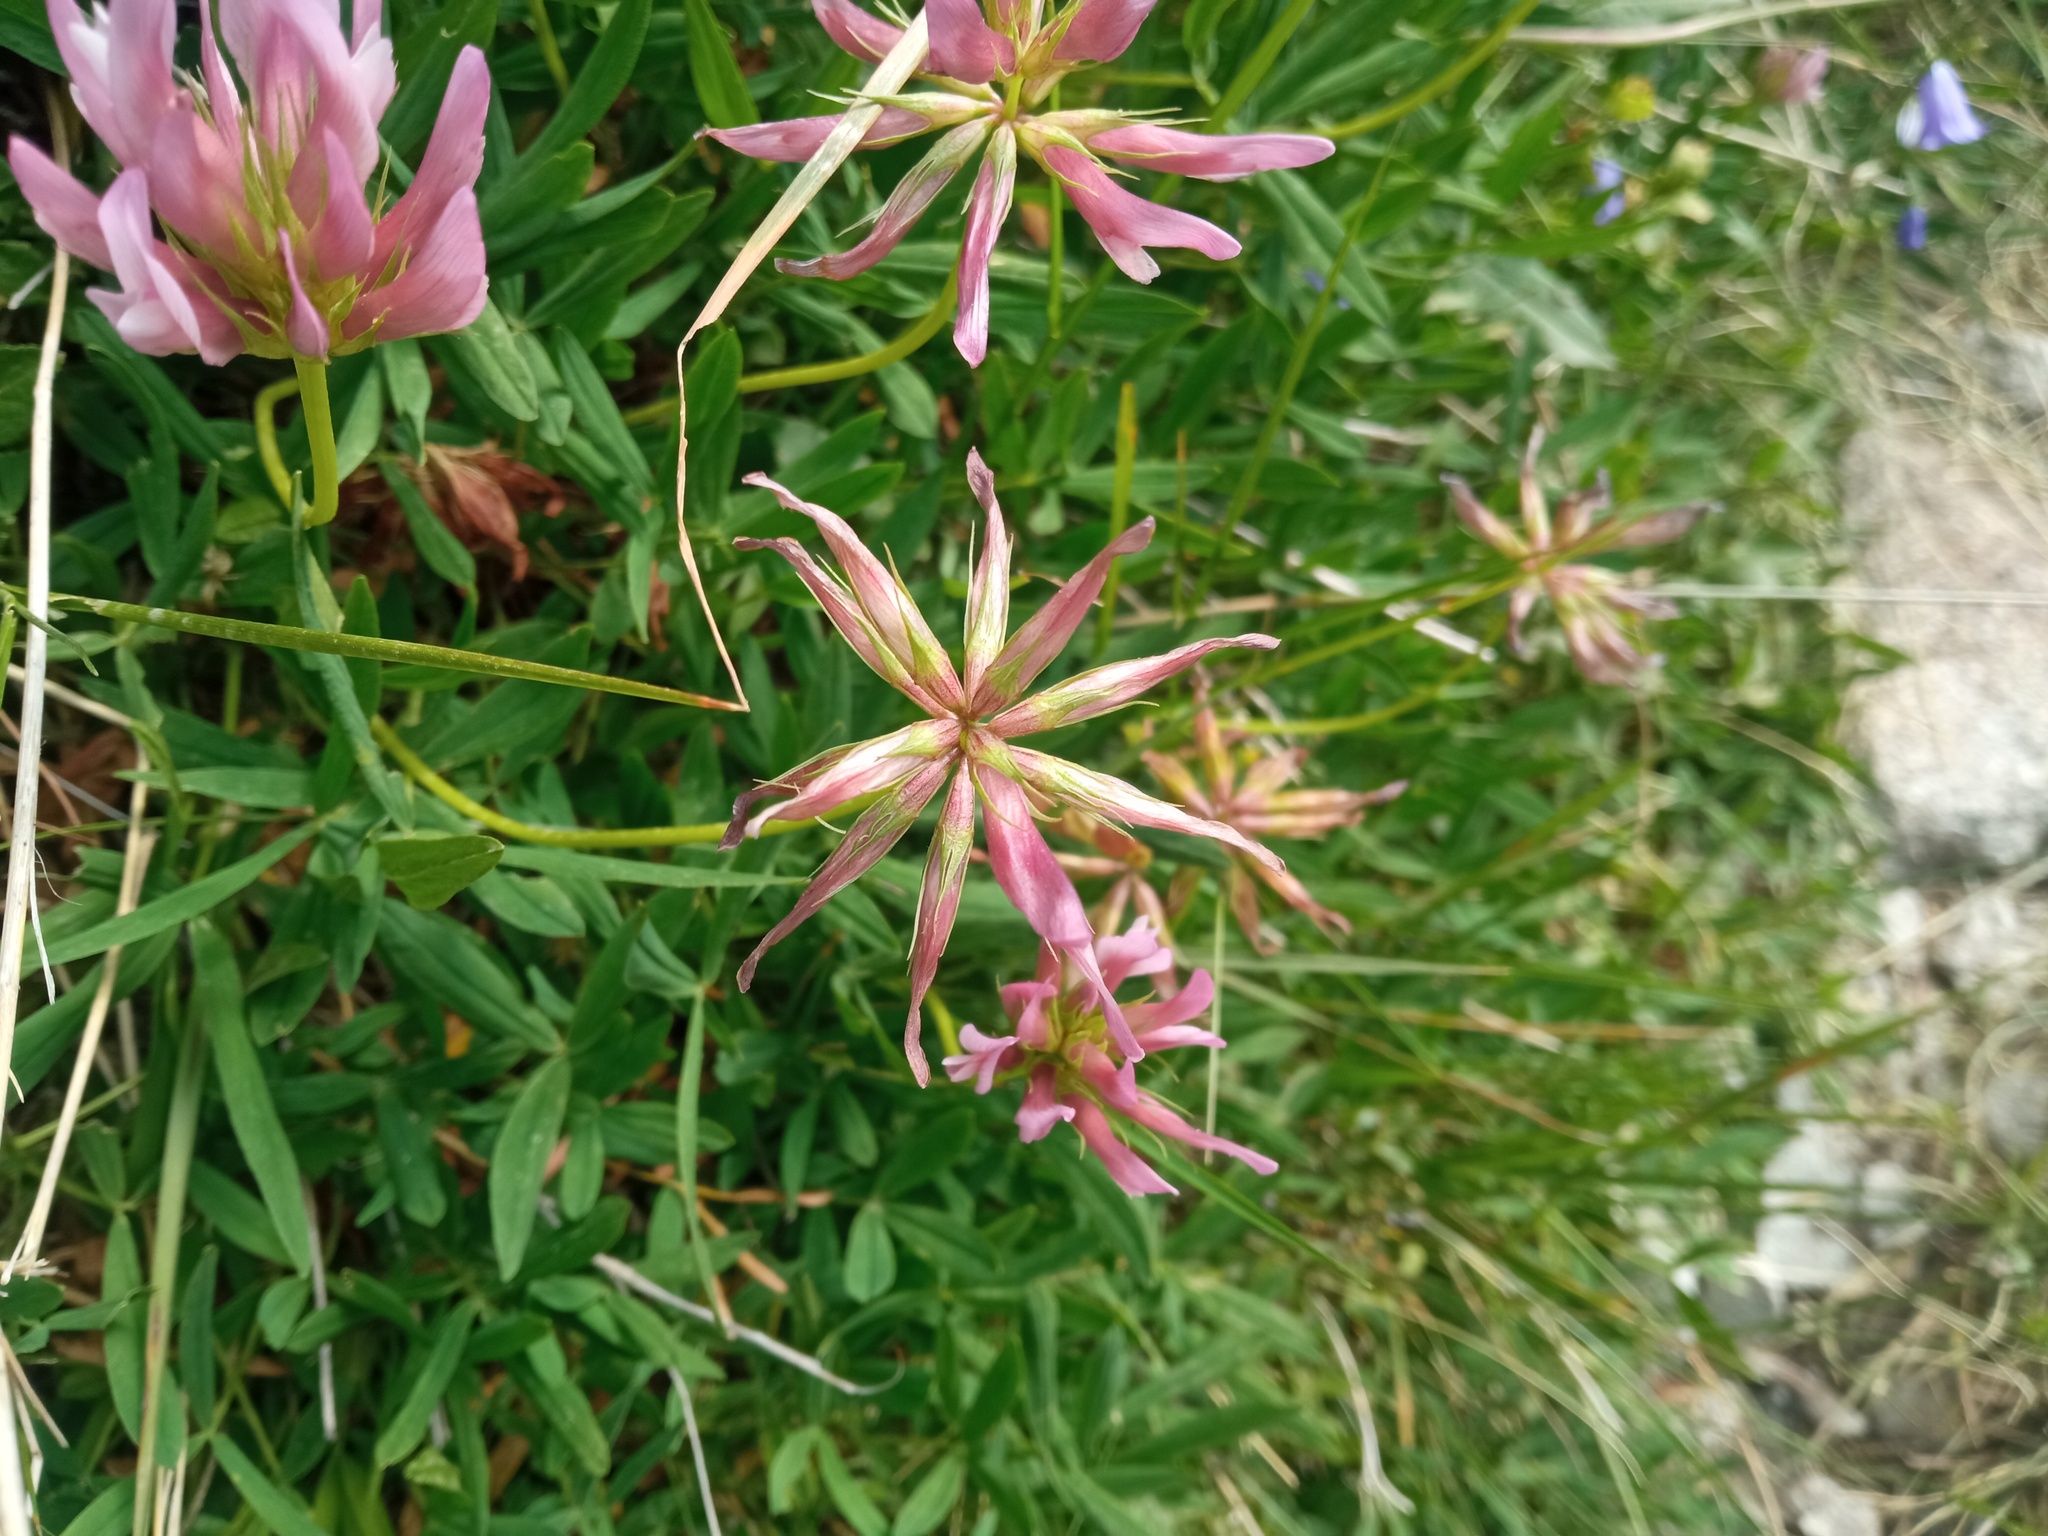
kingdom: Plantae
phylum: Tracheophyta
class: Magnoliopsida
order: Fabales
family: Fabaceae
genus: Trifolium
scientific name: Trifolium alpinum
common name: Alpine clover
